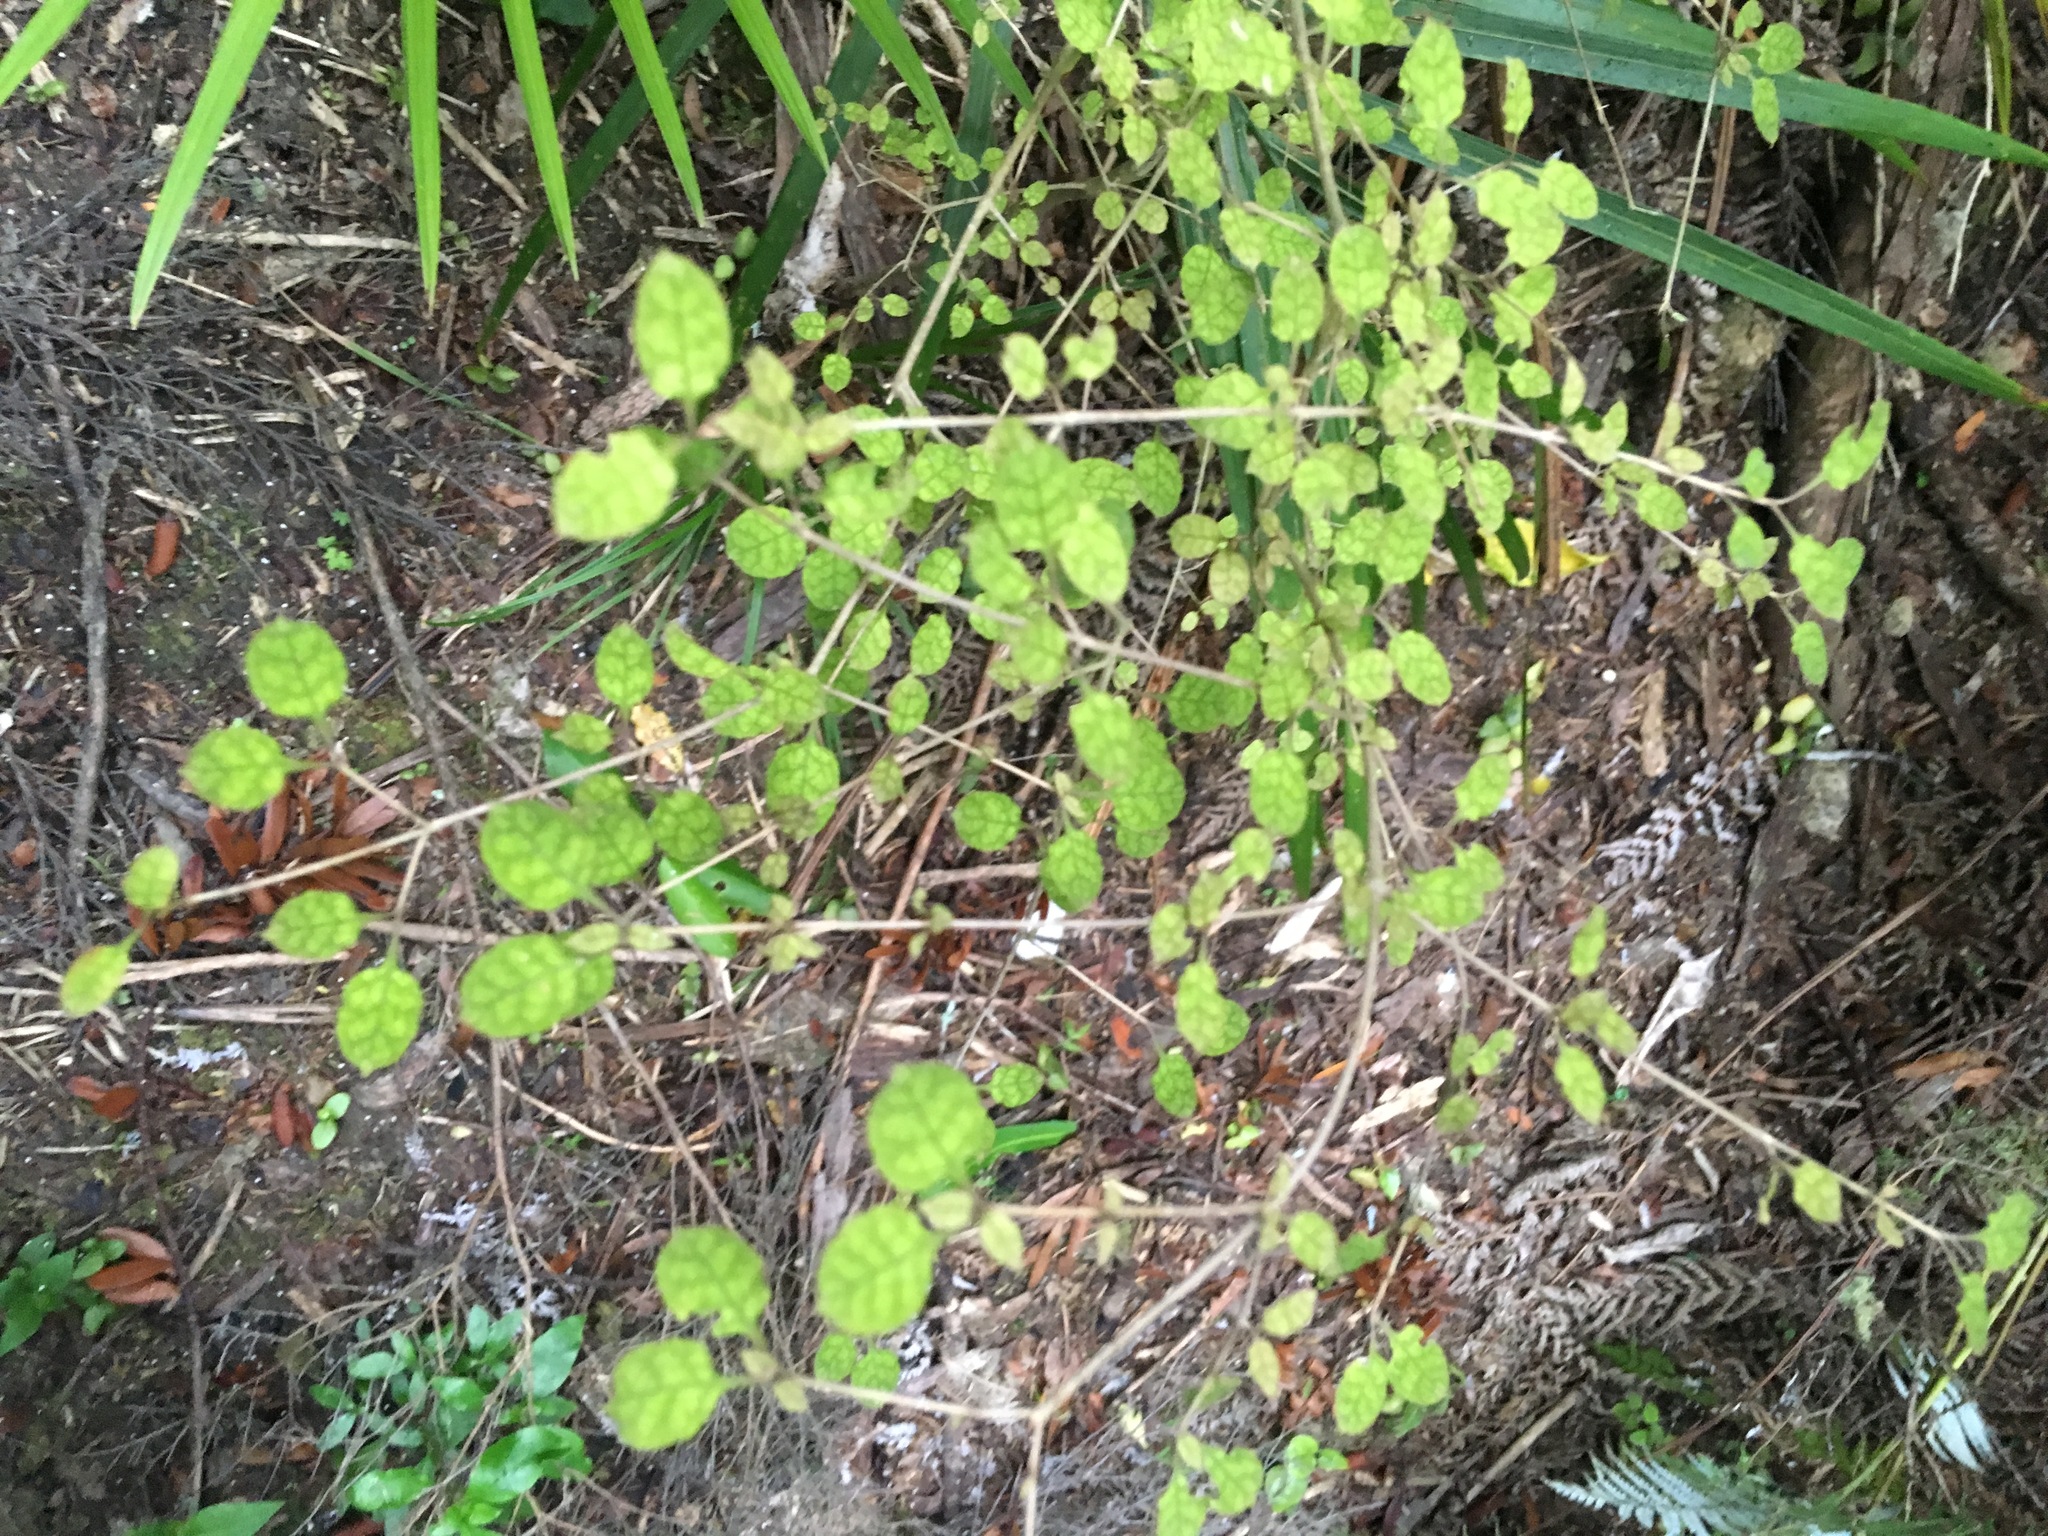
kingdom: Plantae
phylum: Tracheophyta
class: Magnoliopsida
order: Gentianales
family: Rubiaceae
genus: Coprosma
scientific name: Coprosma areolata
